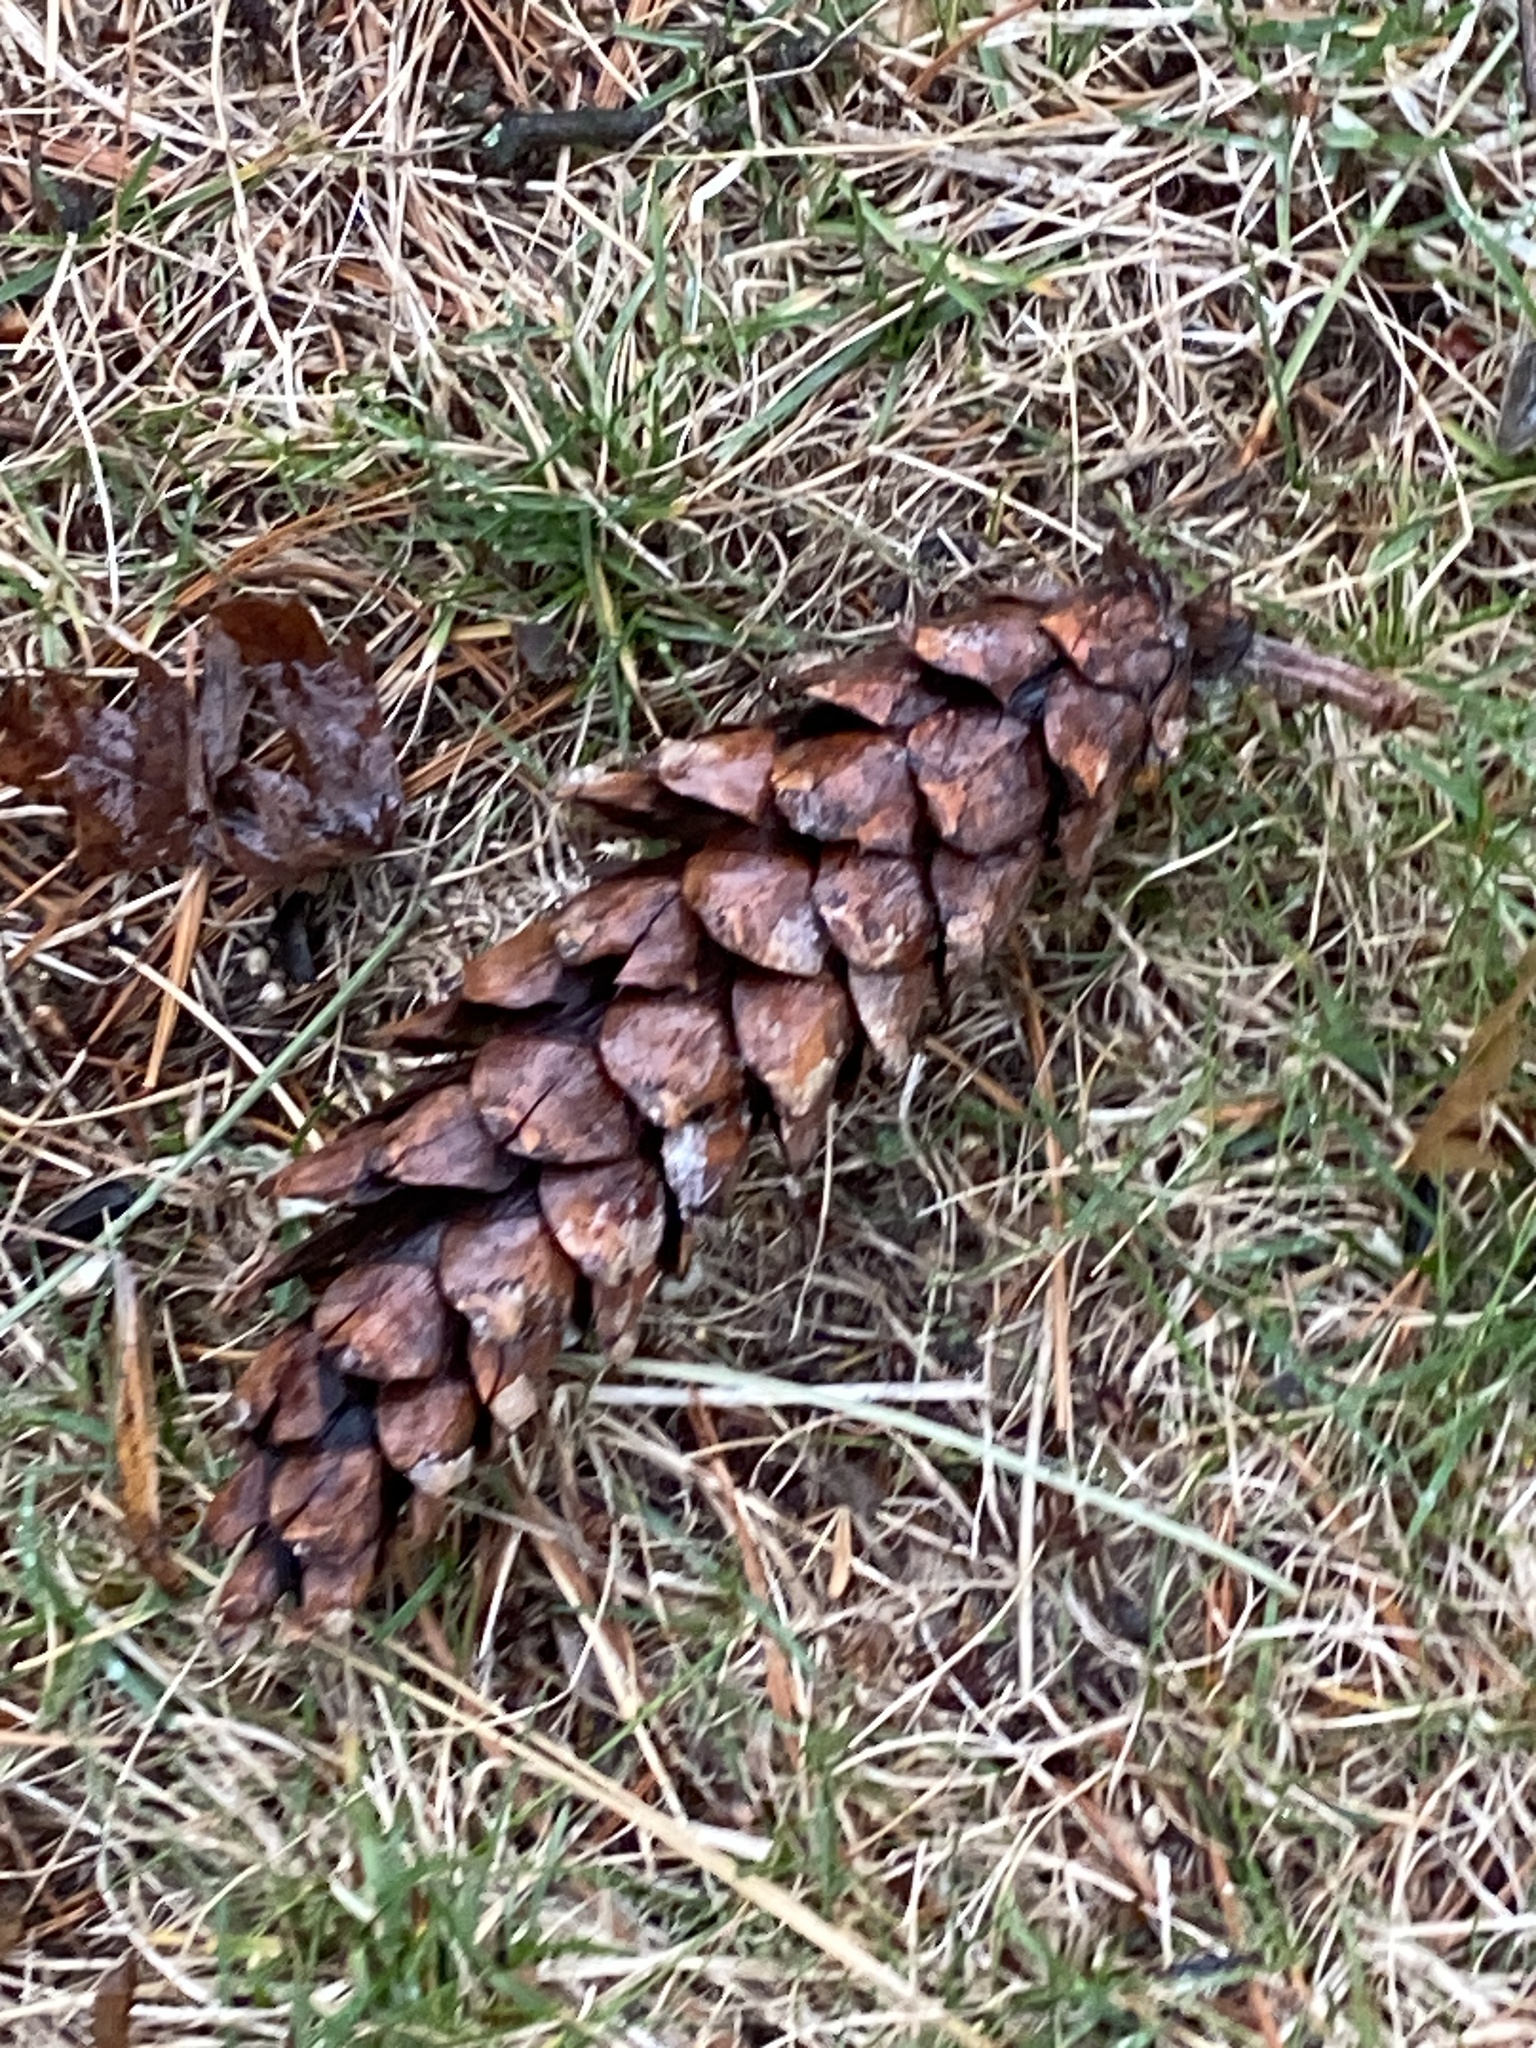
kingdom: Plantae
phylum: Tracheophyta
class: Pinopsida
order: Pinales
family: Pinaceae
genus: Pinus
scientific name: Pinus strobus
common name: Weymouth pine
